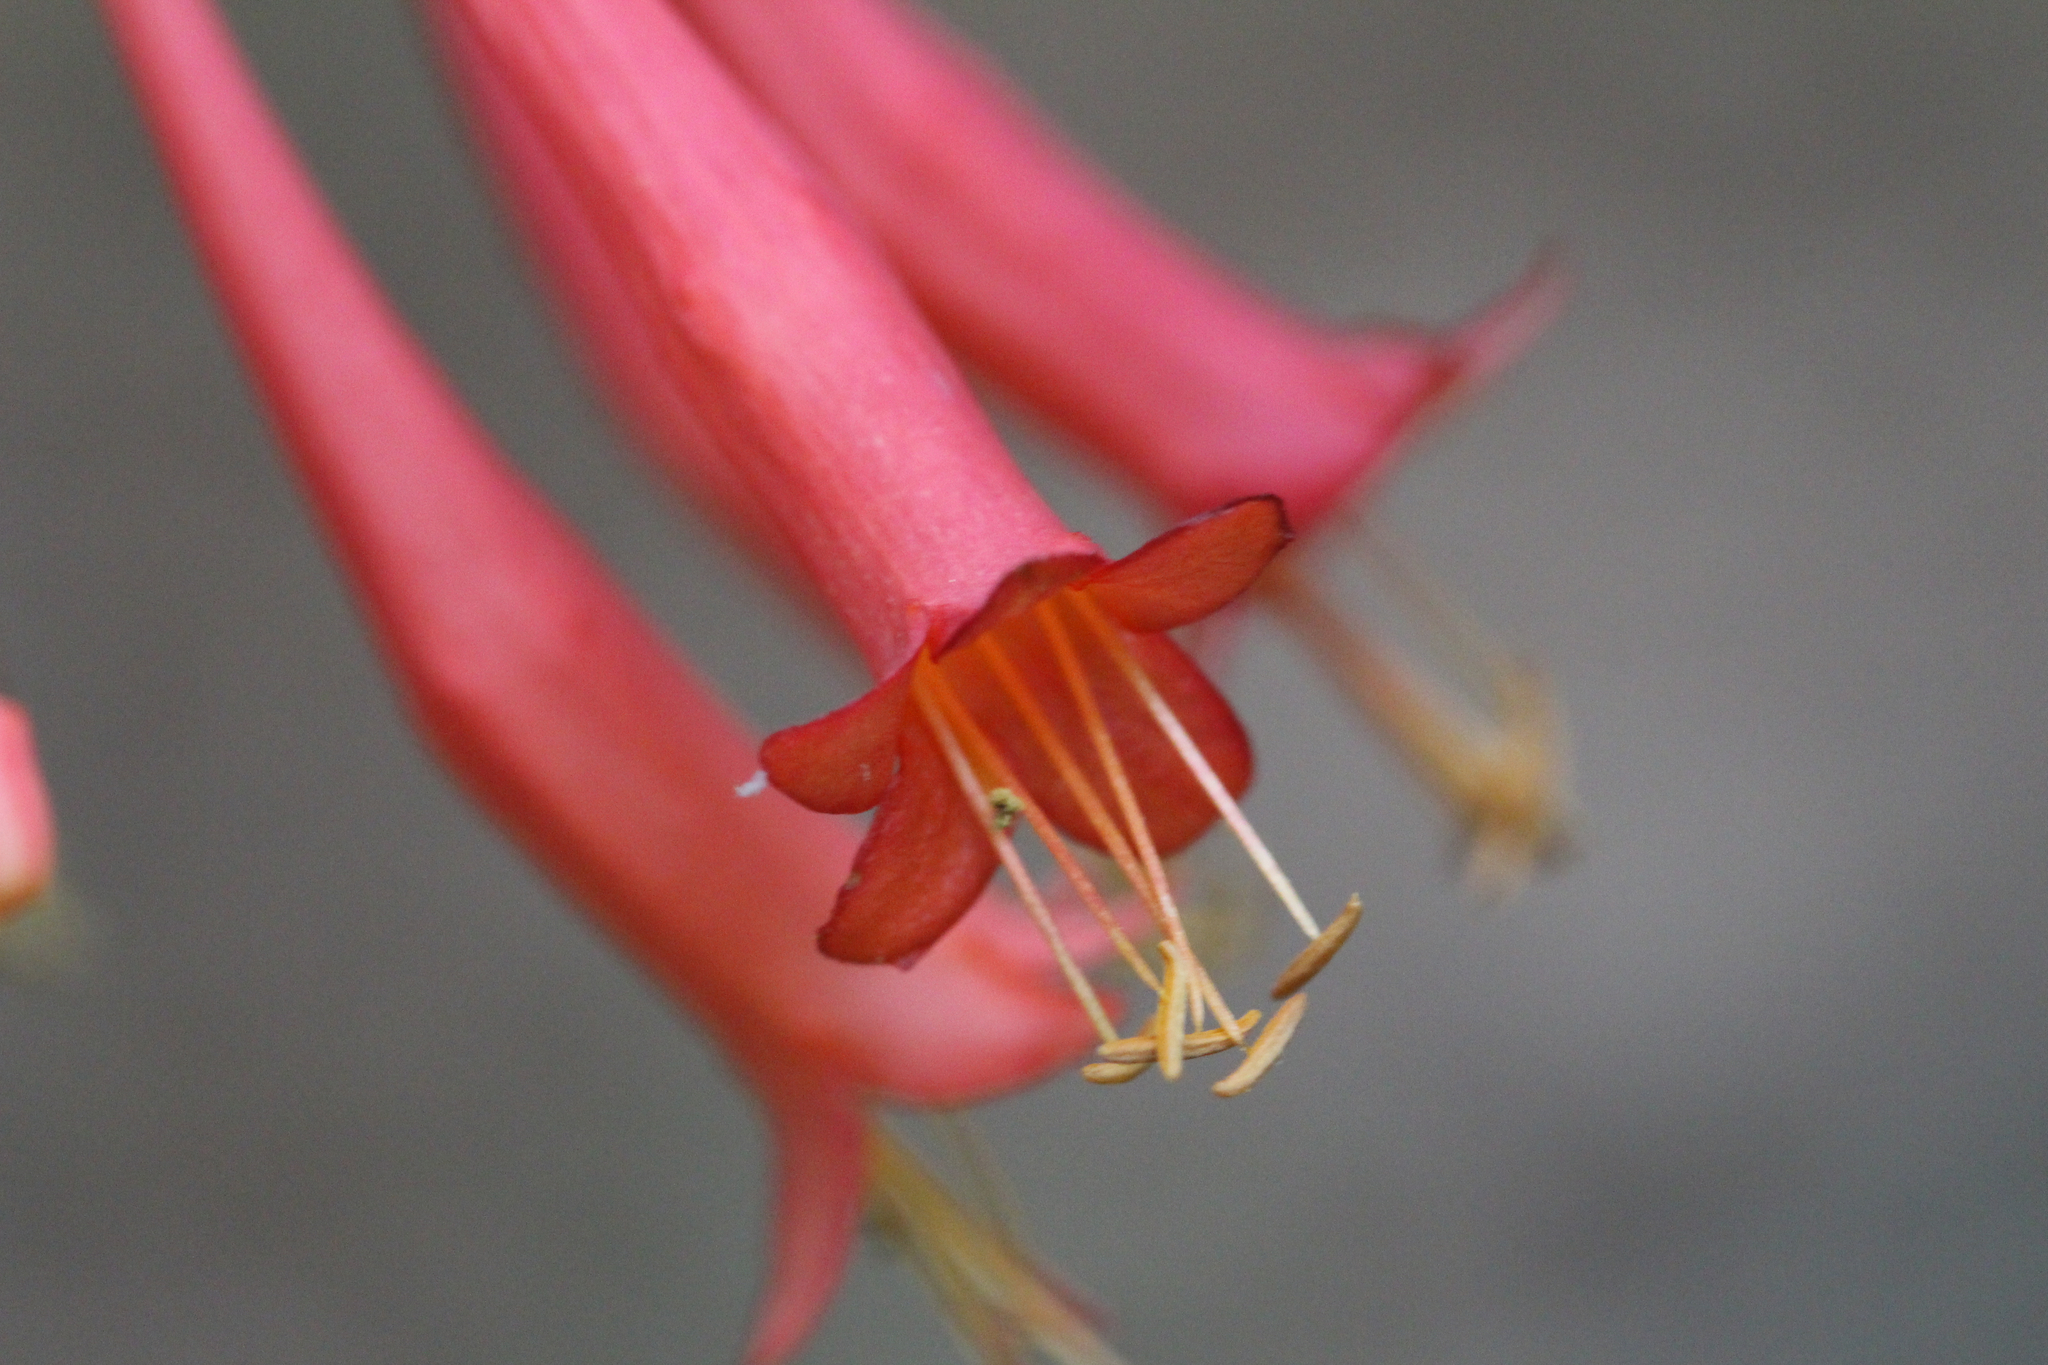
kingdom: Plantae
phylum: Tracheophyta
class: Magnoliopsida
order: Dipsacales
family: Caprifoliaceae
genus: Lonicera
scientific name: Lonicera sempervirens
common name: Coral honeysuckle
